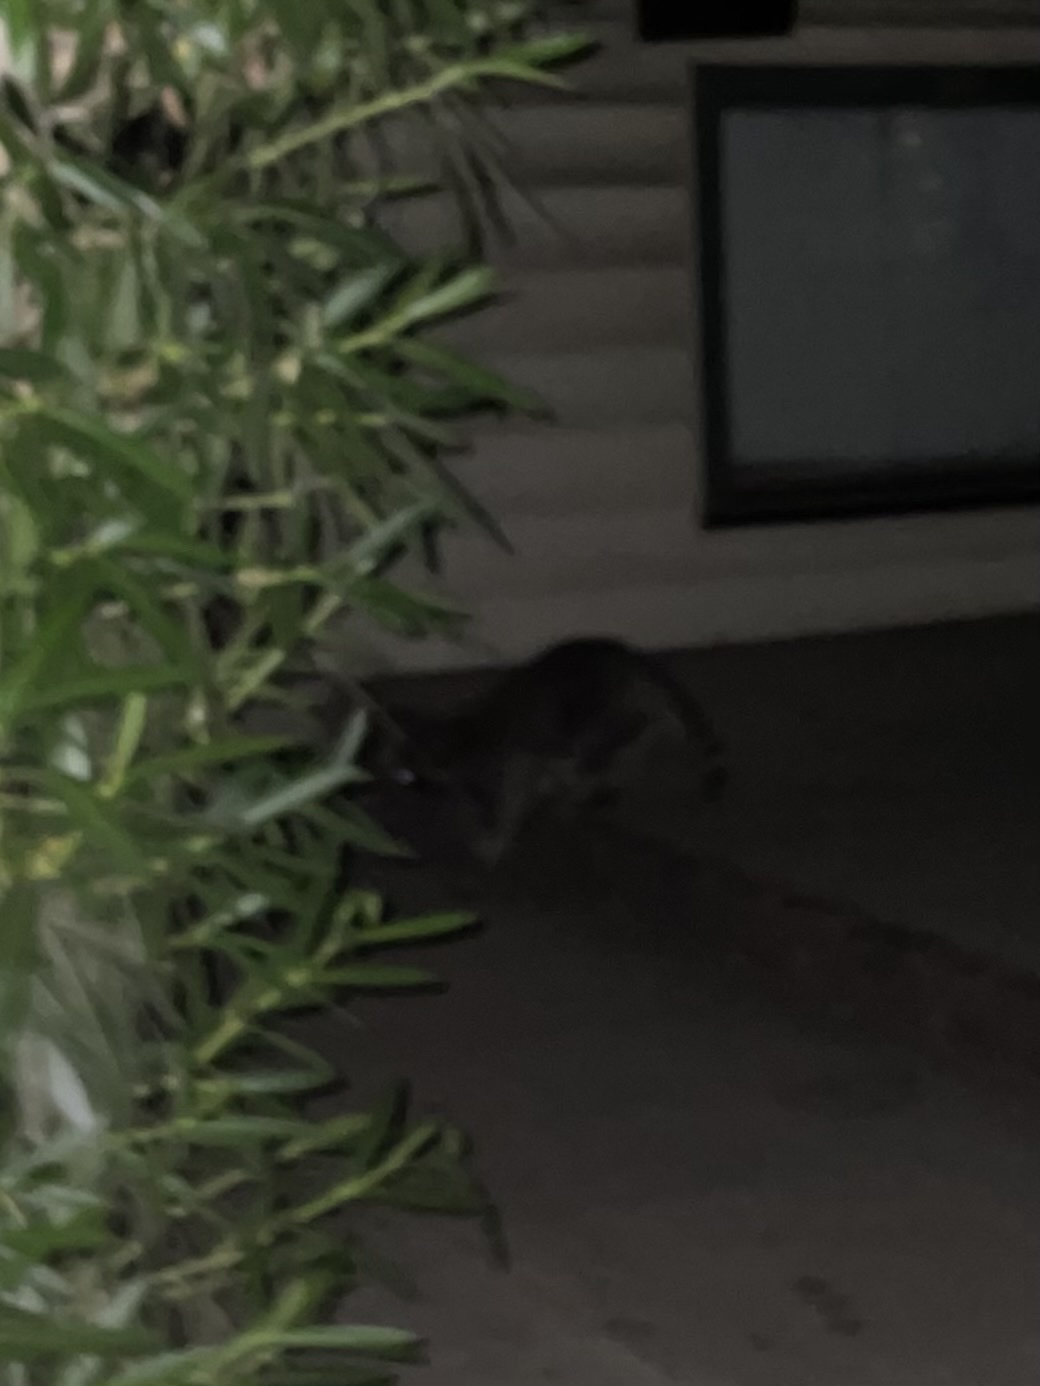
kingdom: Animalia
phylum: Chordata
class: Mammalia
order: Carnivora
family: Procyonidae
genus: Procyon
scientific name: Procyon lotor
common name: Raccoon
